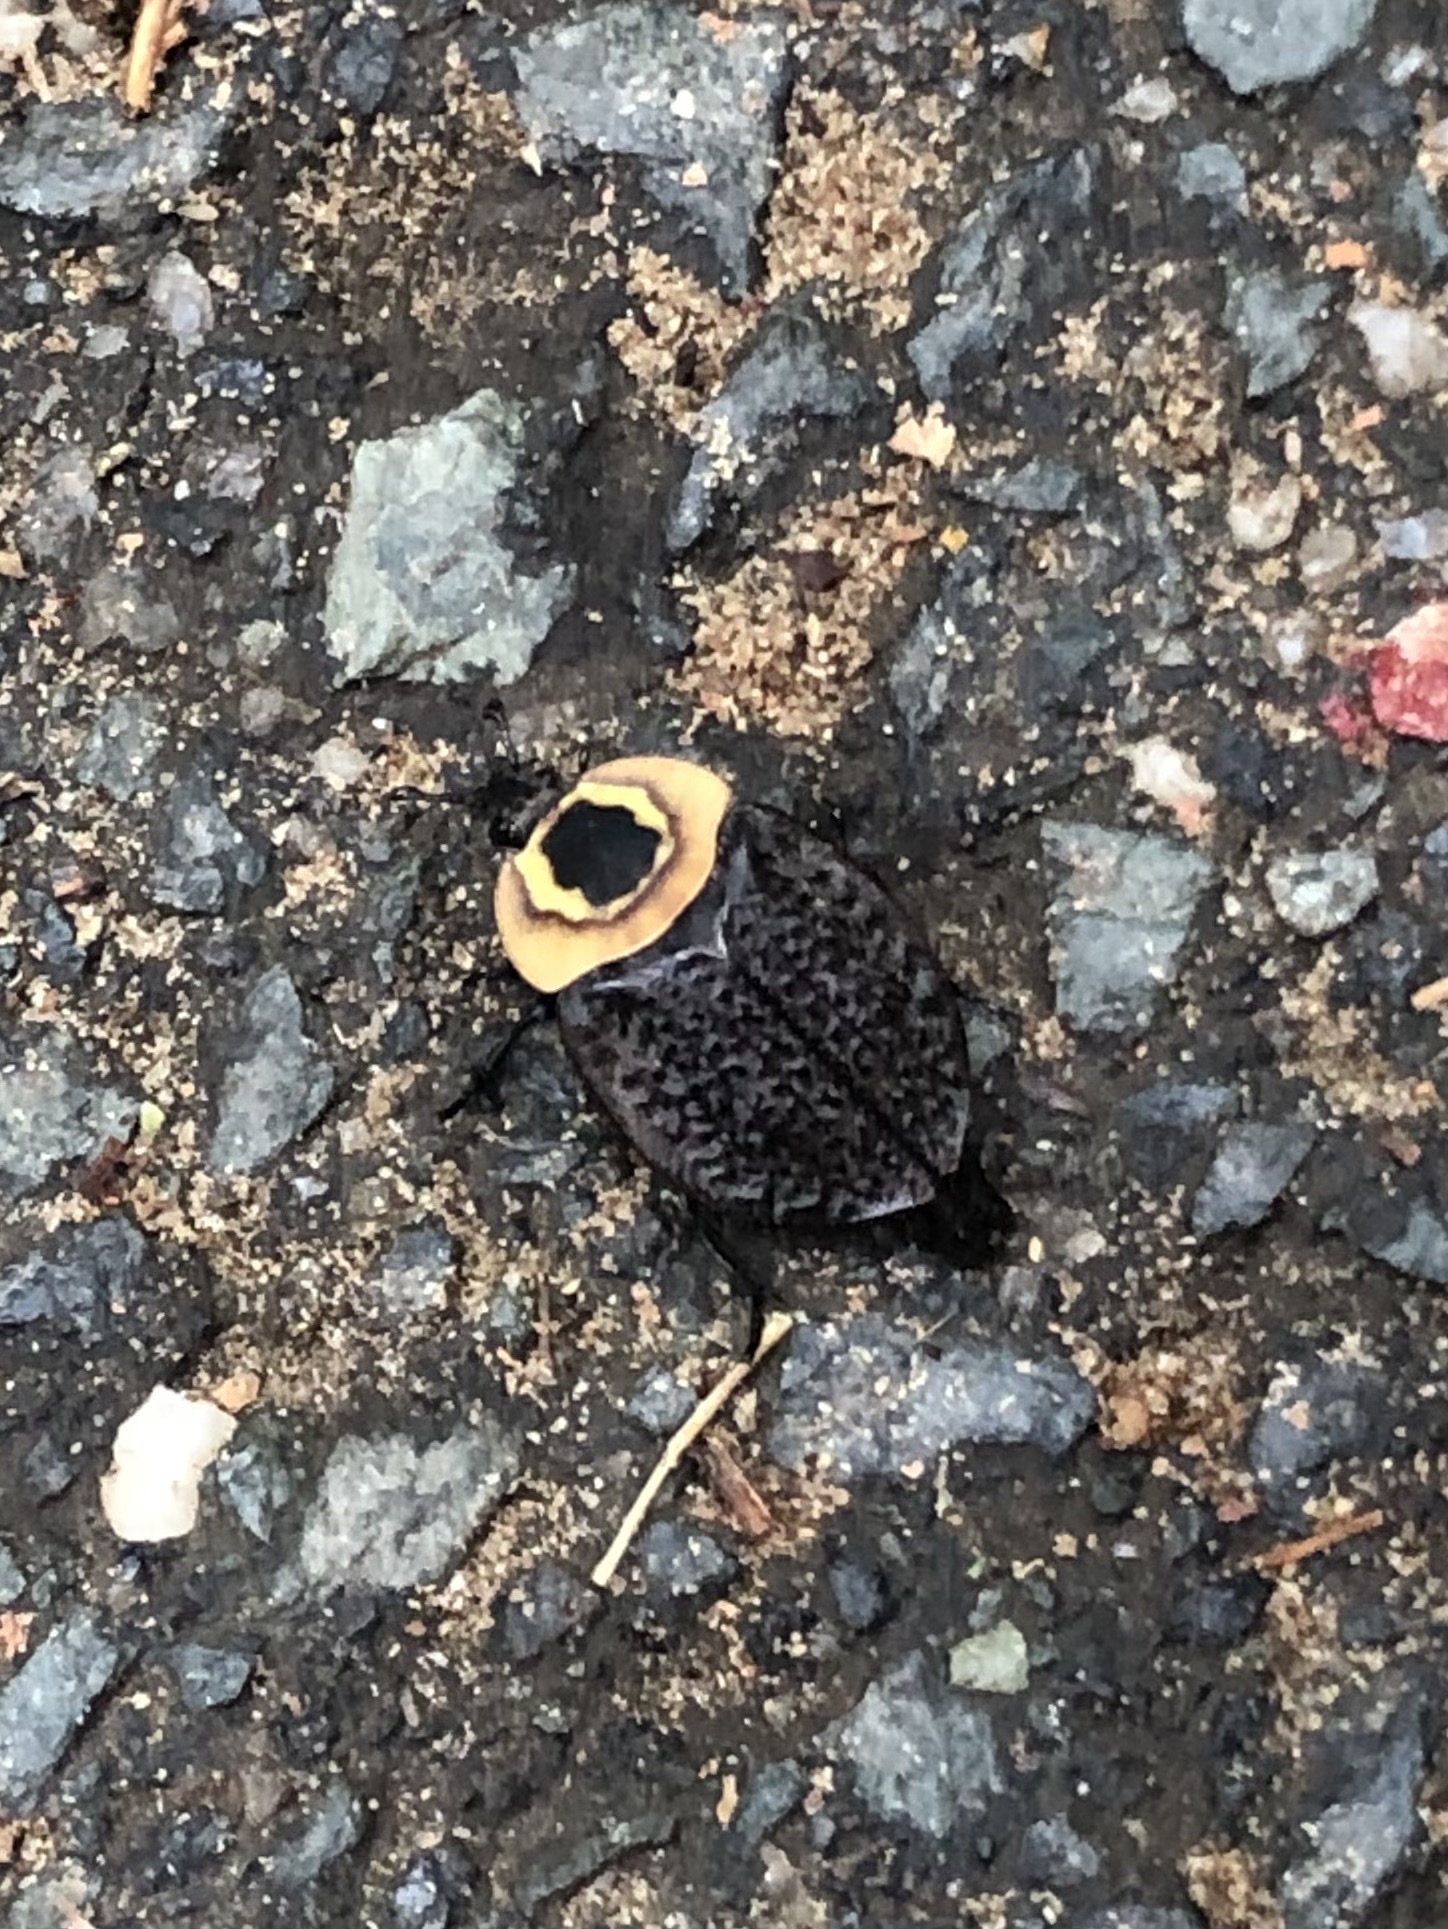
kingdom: Animalia
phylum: Arthropoda
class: Insecta
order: Coleoptera
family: Staphylinidae
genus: Necrophila
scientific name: Necrophila americana
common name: American carrion beetle
